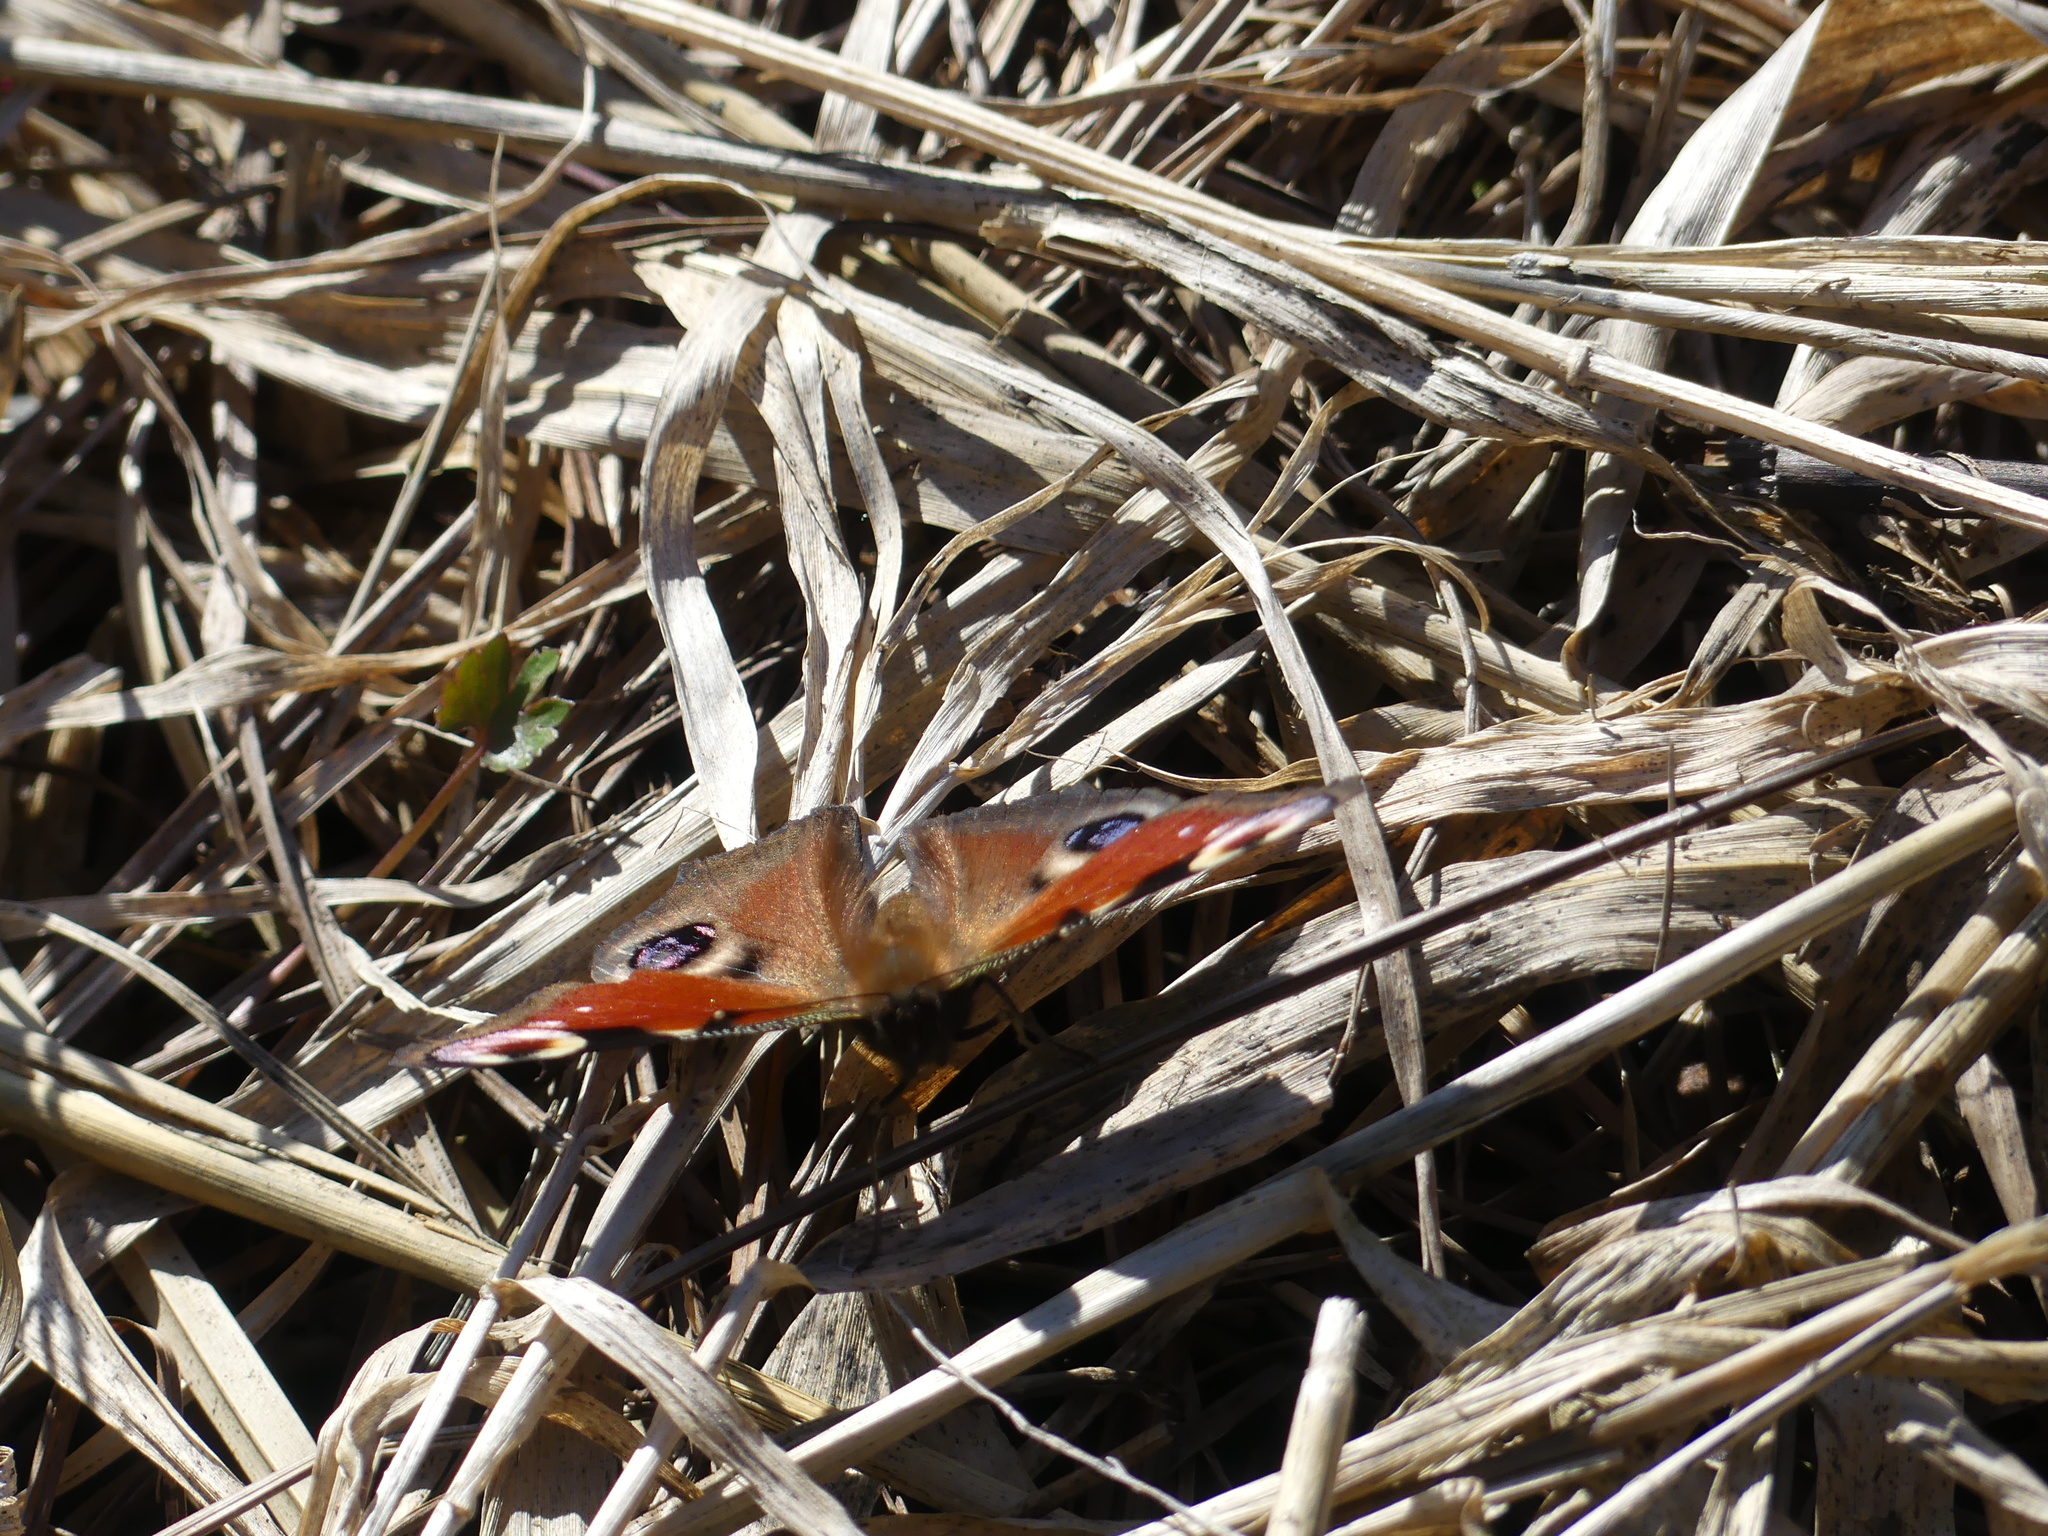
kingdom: Animalia
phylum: Arthropoda
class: Insecta
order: Lepidoptera
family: Nymphalidae
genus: Aglais
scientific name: Aglais io
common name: Peacock
